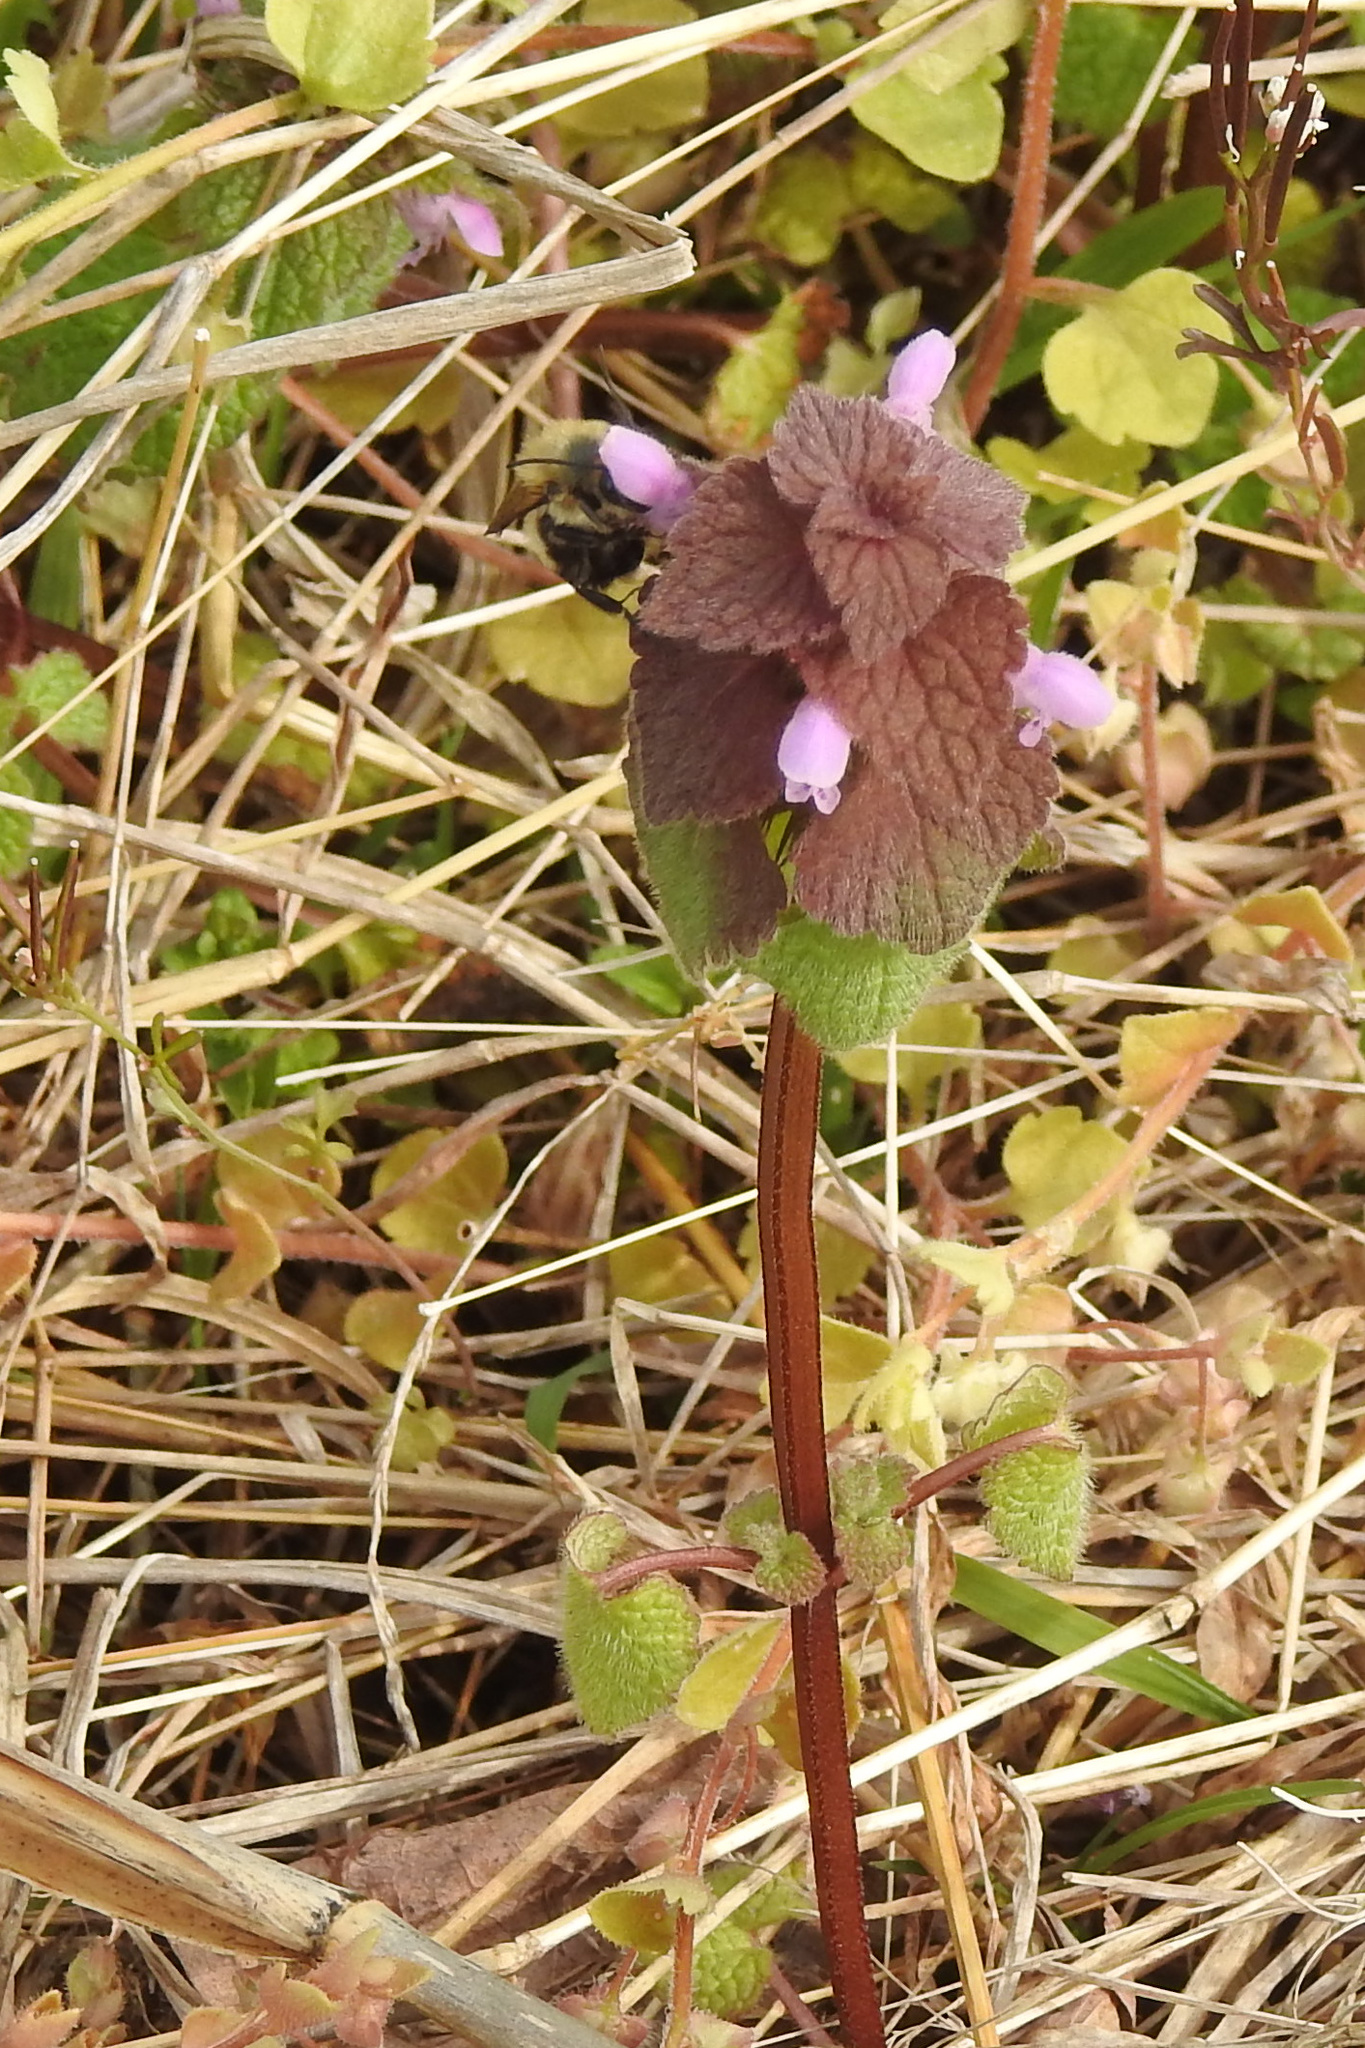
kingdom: Plantae
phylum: Tracheophyta
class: Magnoliopsida
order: Lamiales
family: Lamiaceae
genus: Lamium
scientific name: Lamium purpureum
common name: Red dead-nettle
